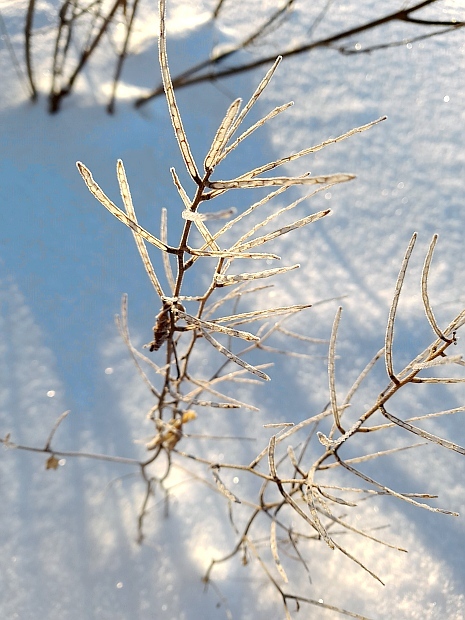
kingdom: Plantae
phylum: Tracheophyta
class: Magnoliopsida
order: Brassicales
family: Brassicaceae
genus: Alliaria
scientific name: Alliaria petiolata
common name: Garlic mustard
